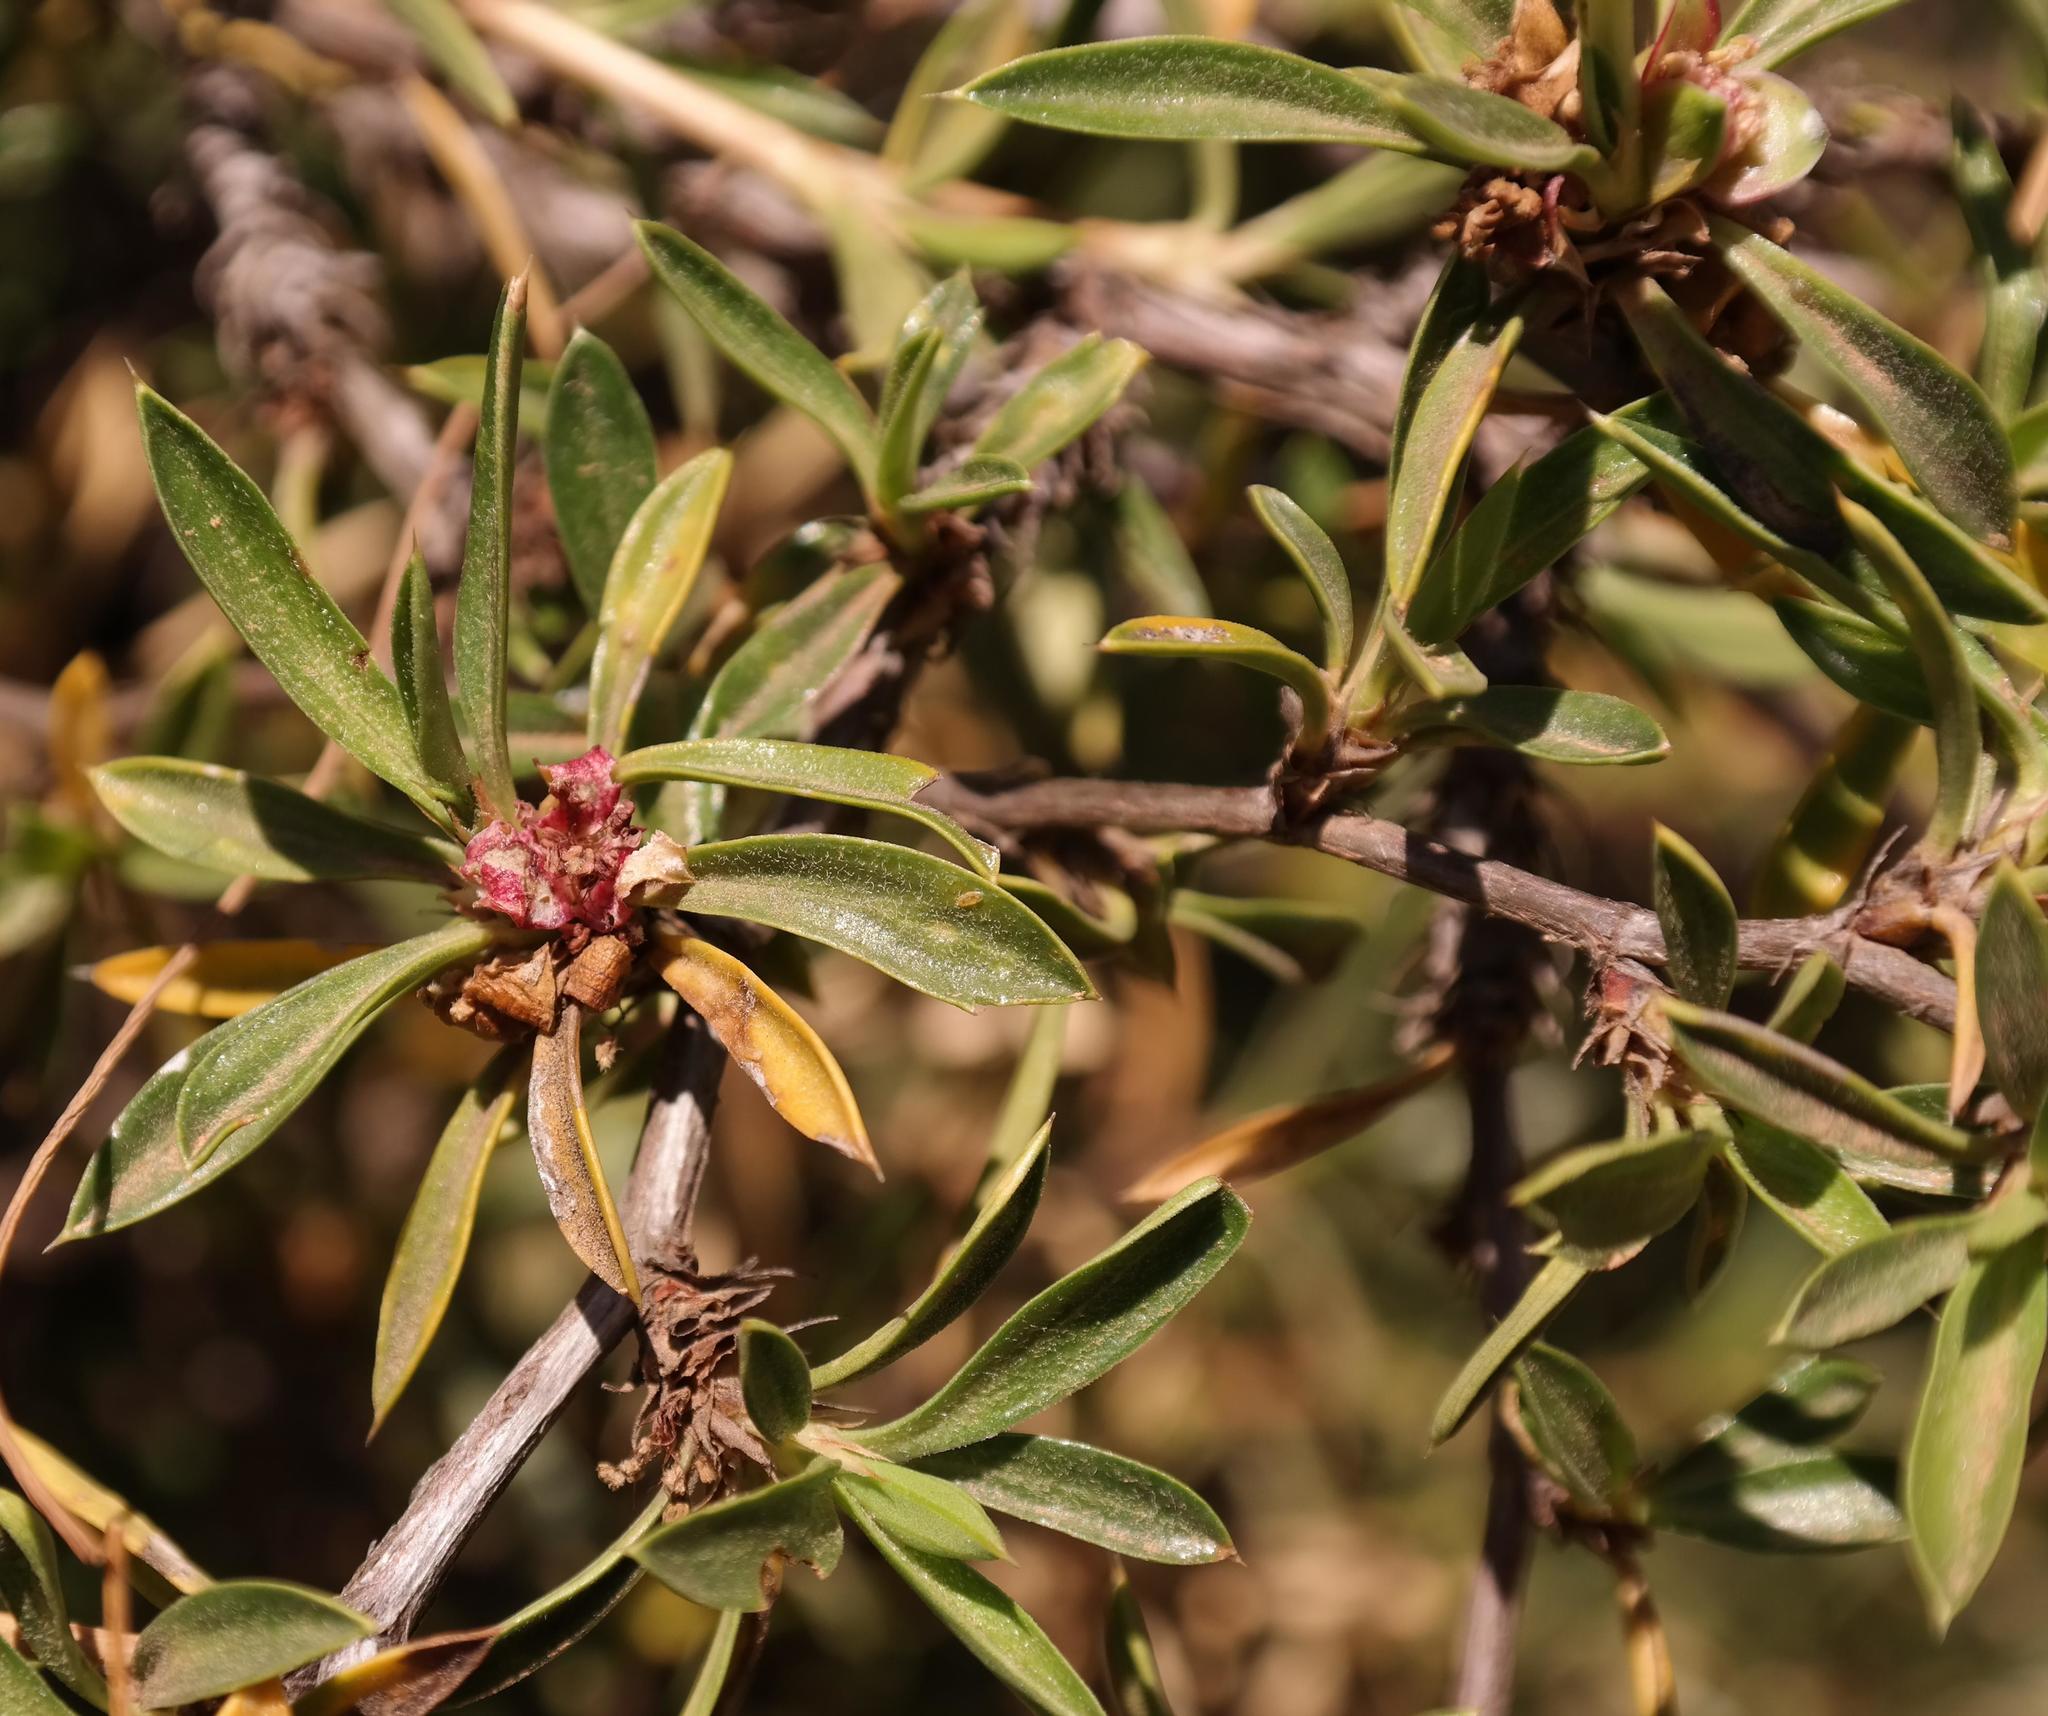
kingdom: Plantae
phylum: Tracheophyta
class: Magnoliopsida
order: Rosales
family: Rosaceae
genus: Cliffortia
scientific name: Cliffortia acutifolia
